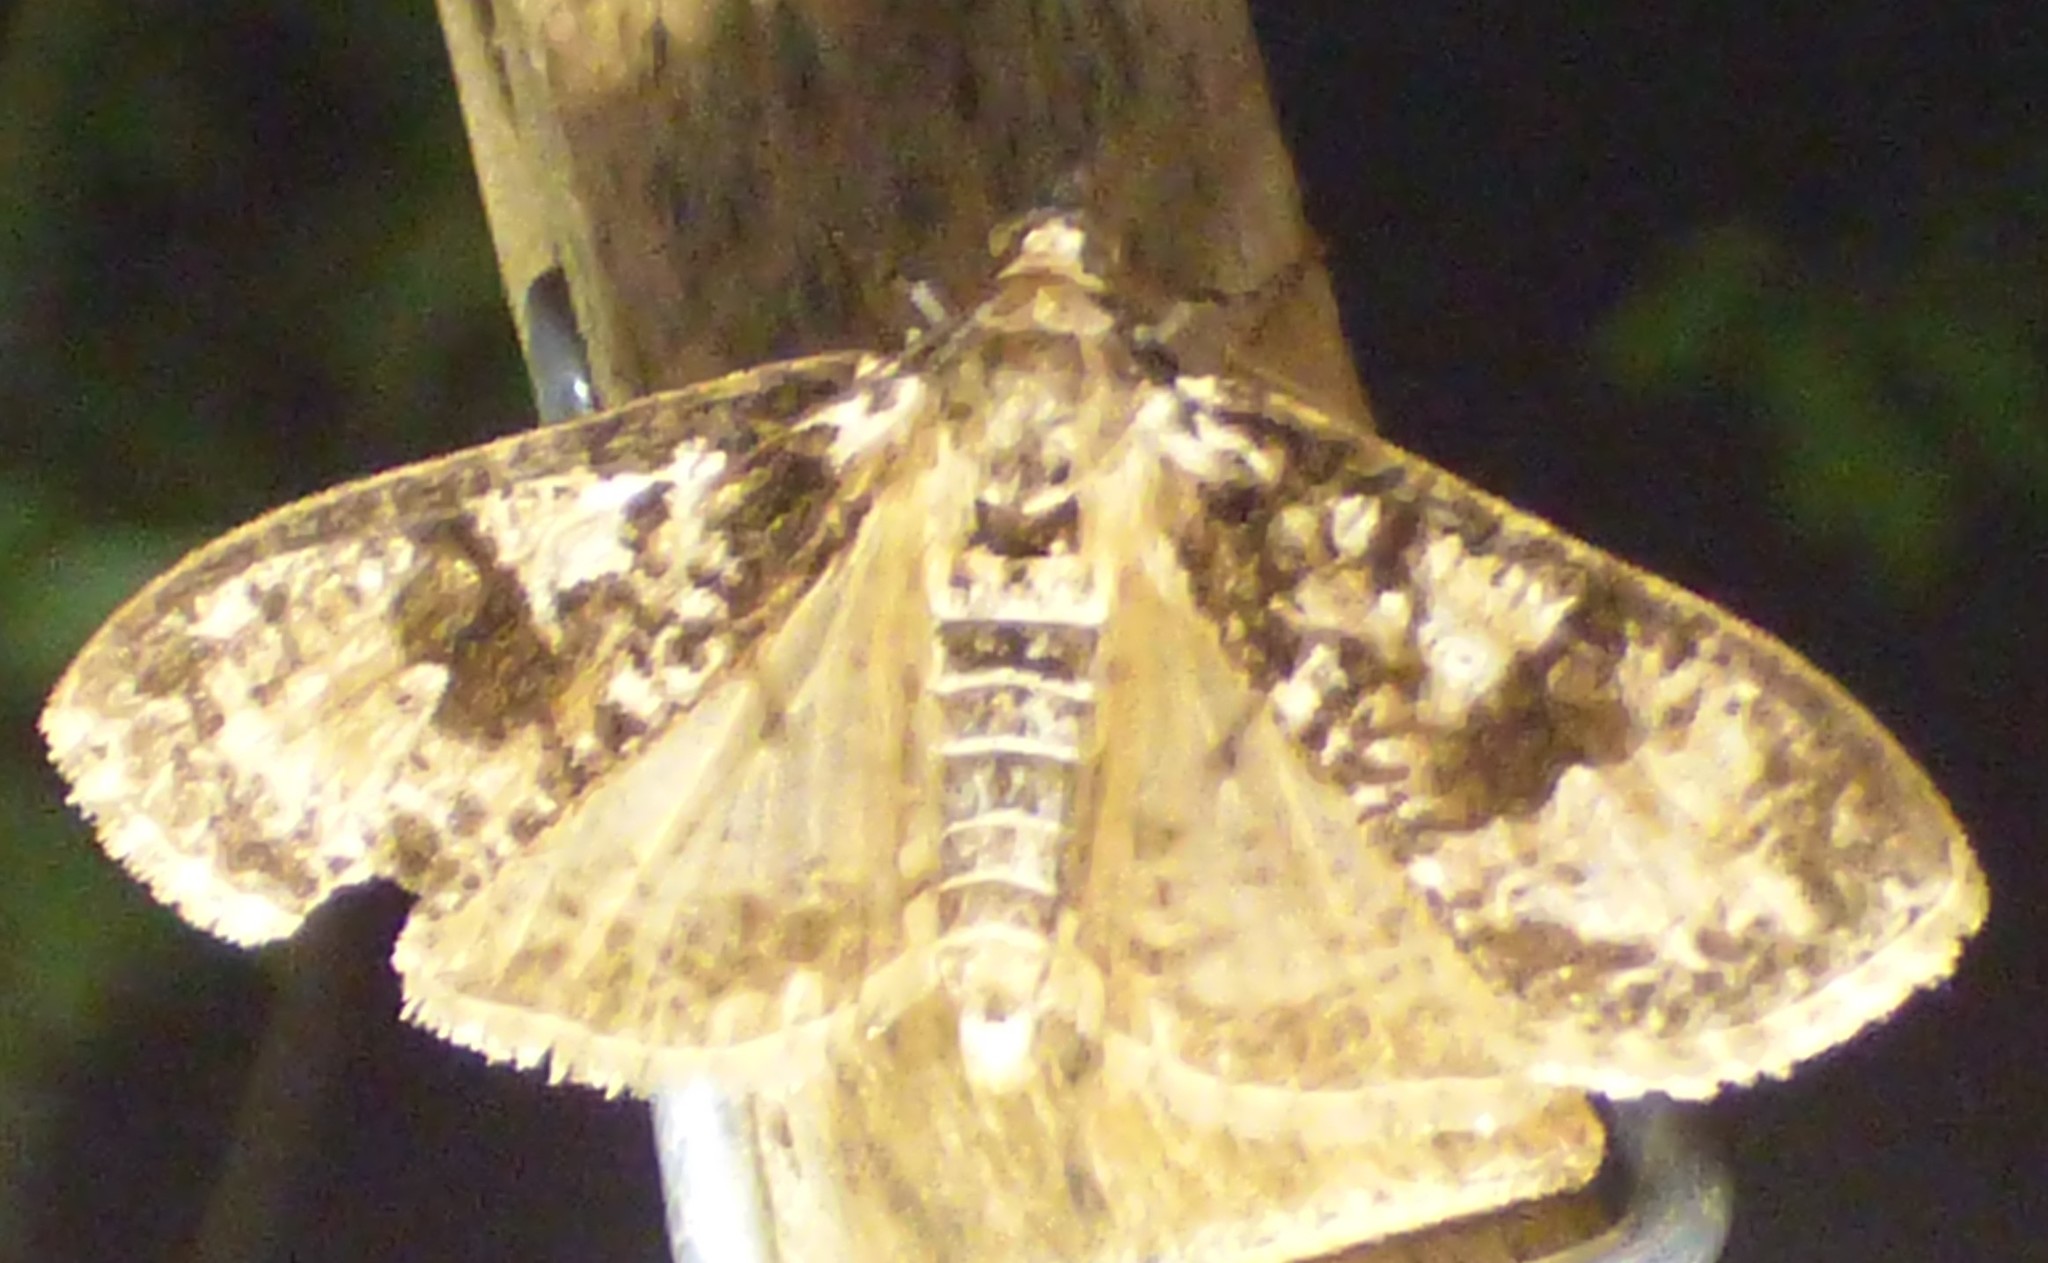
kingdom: Animalia
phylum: Arthropoda
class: Insecta
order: Lepidoptera
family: Crambidae
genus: Palpita
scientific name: Palpita magniferalis
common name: Splendid palpita moth
